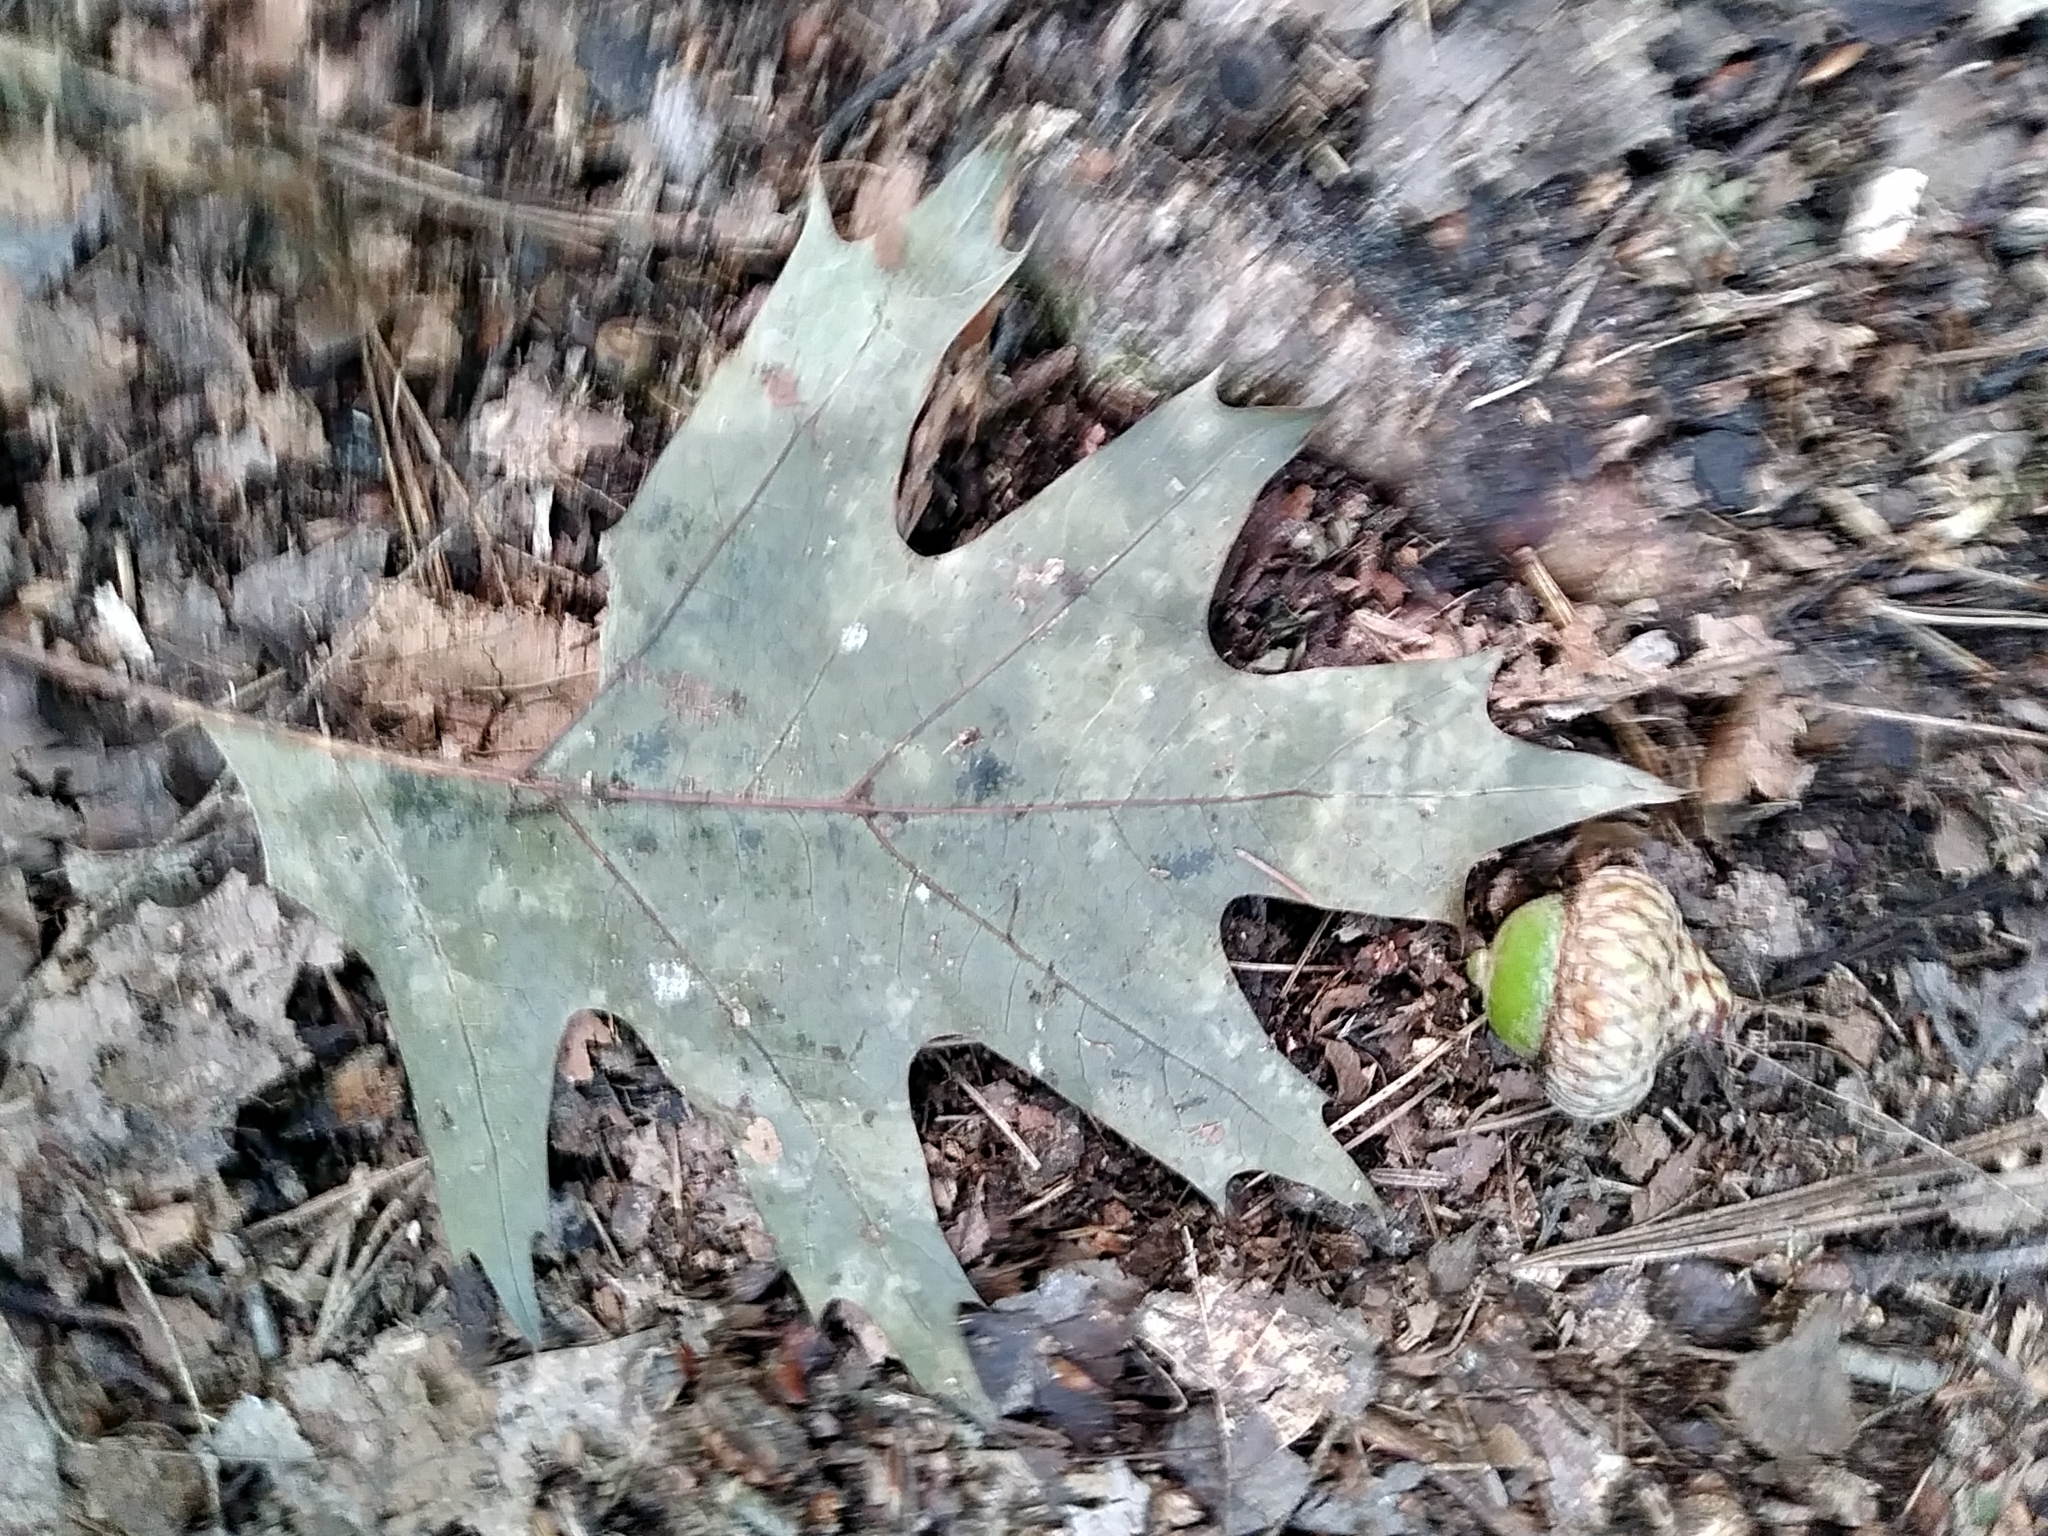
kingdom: Plantae
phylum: Tracheophyta
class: Magnoliopsida
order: Fagales
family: Fagaceae
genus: Quercus
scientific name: Quercus rubra
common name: Red oak
